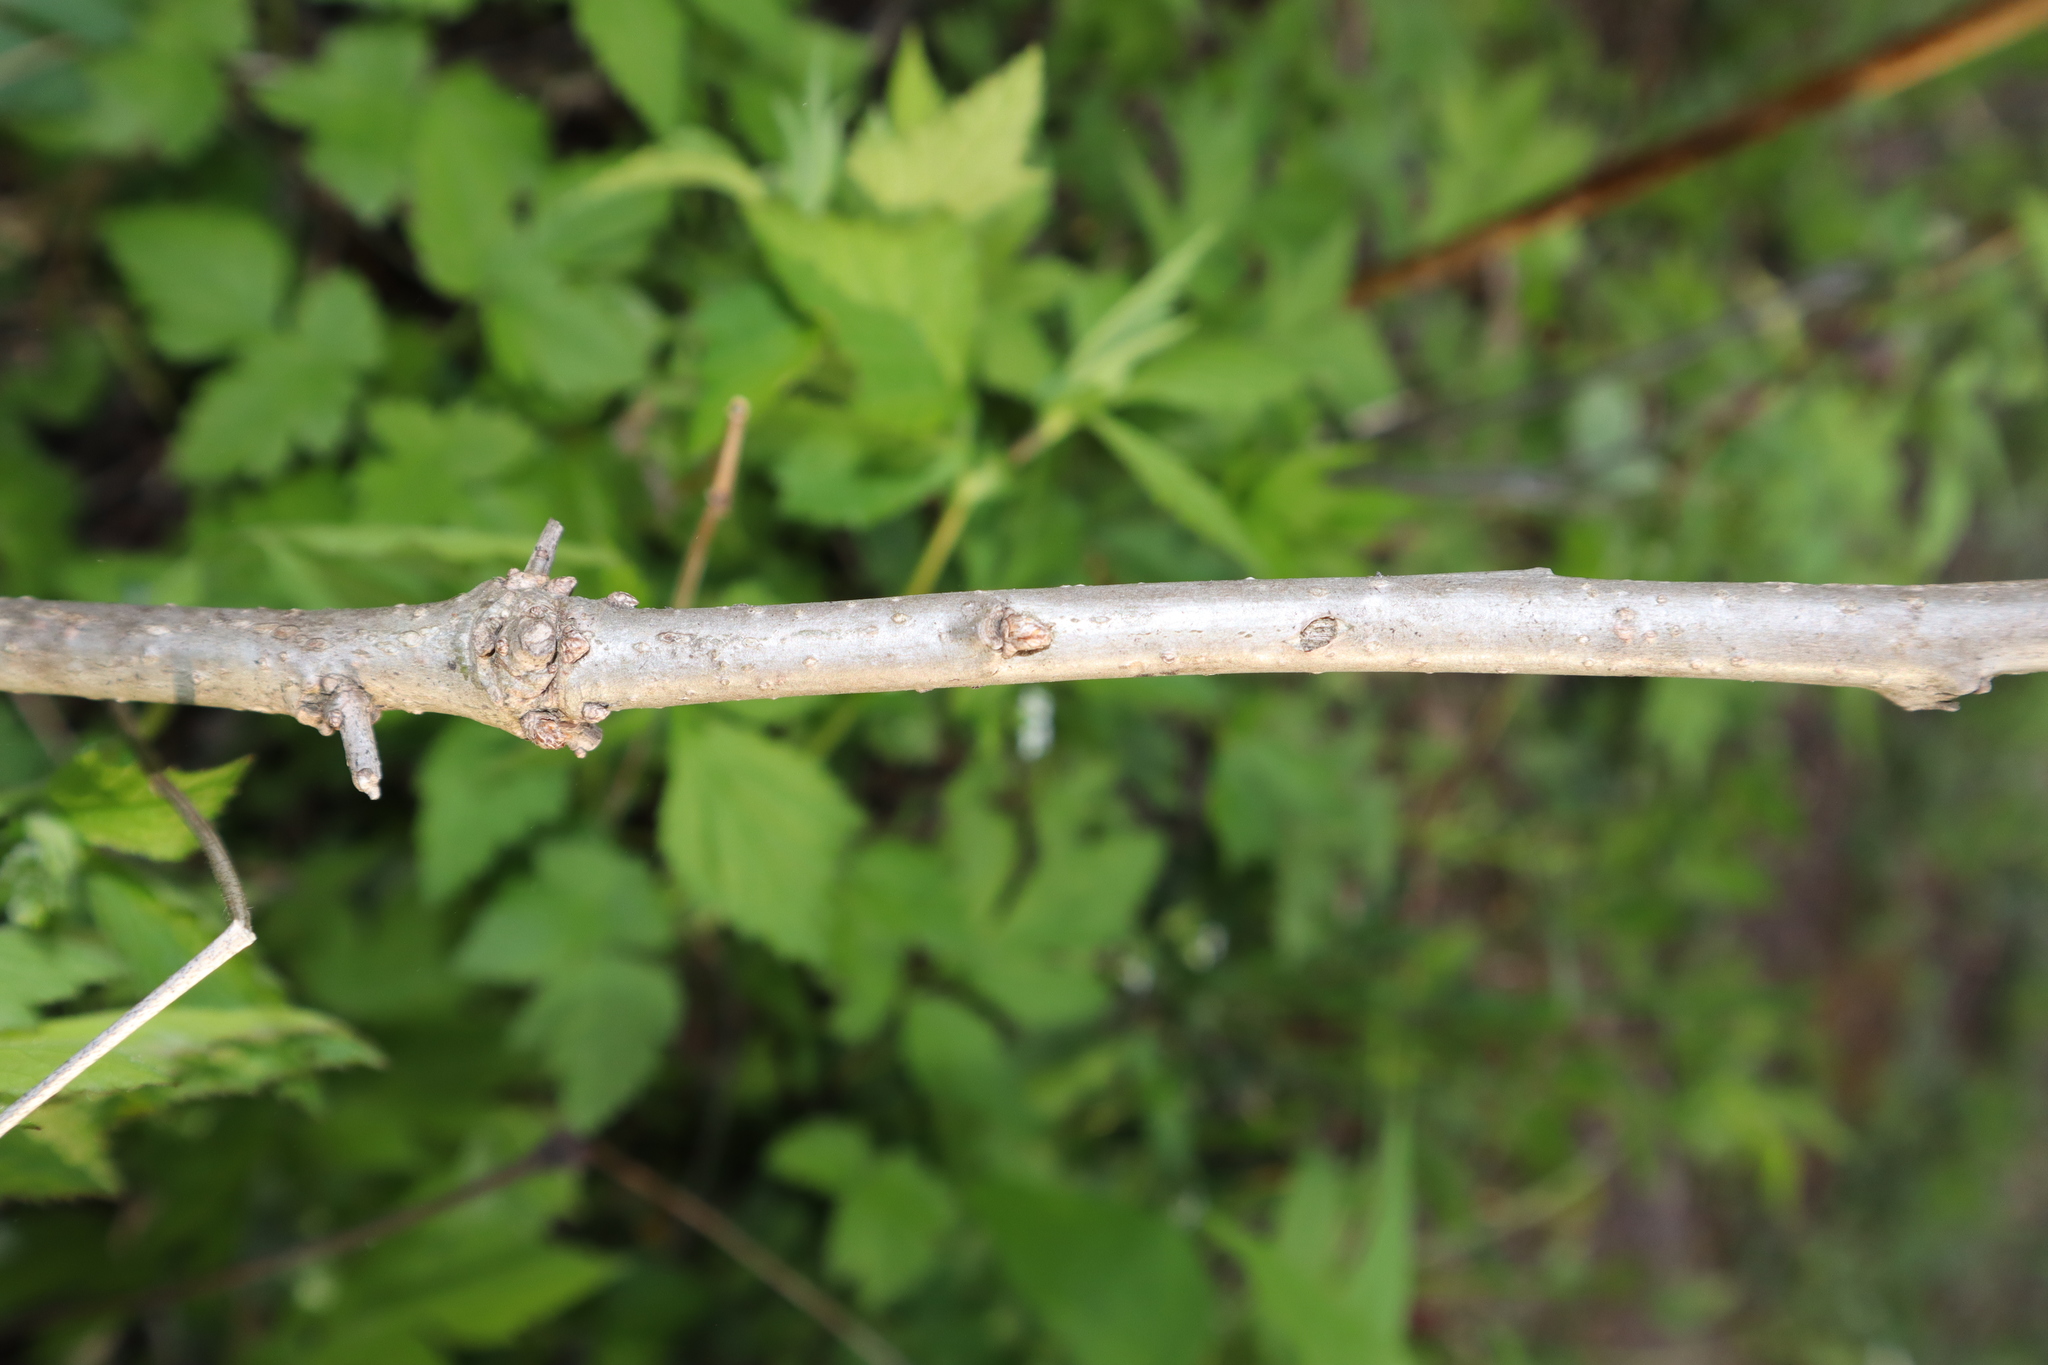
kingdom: Plantae
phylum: Tracheophyta
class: Magnoliopsida
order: Fagales
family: Fagaceae
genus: Quercus
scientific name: Quercus muehlenbergii
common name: Chinkapin oak
